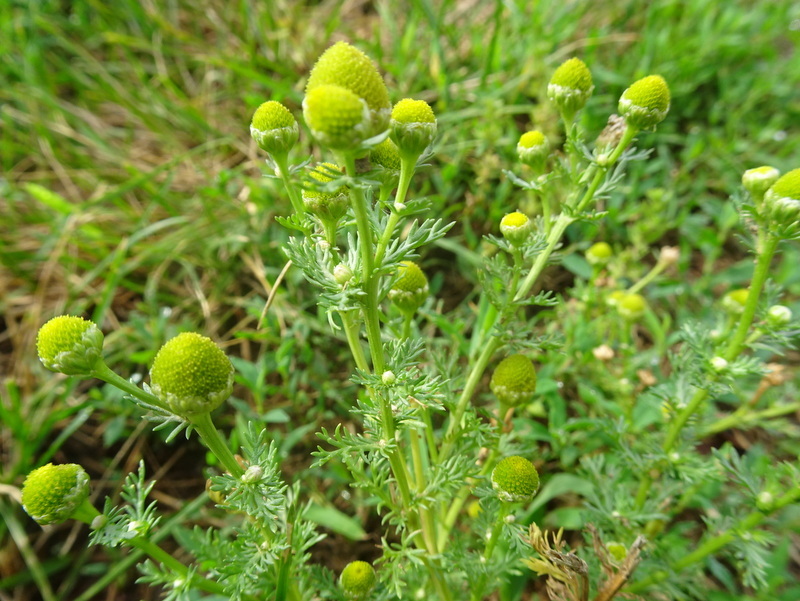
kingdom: Plantae
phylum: Tracheophyta
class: Magnoliopsida
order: Asterales
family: Asteraceae
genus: Matricaria
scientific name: Matricaria discoidea
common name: Disc mayweed
